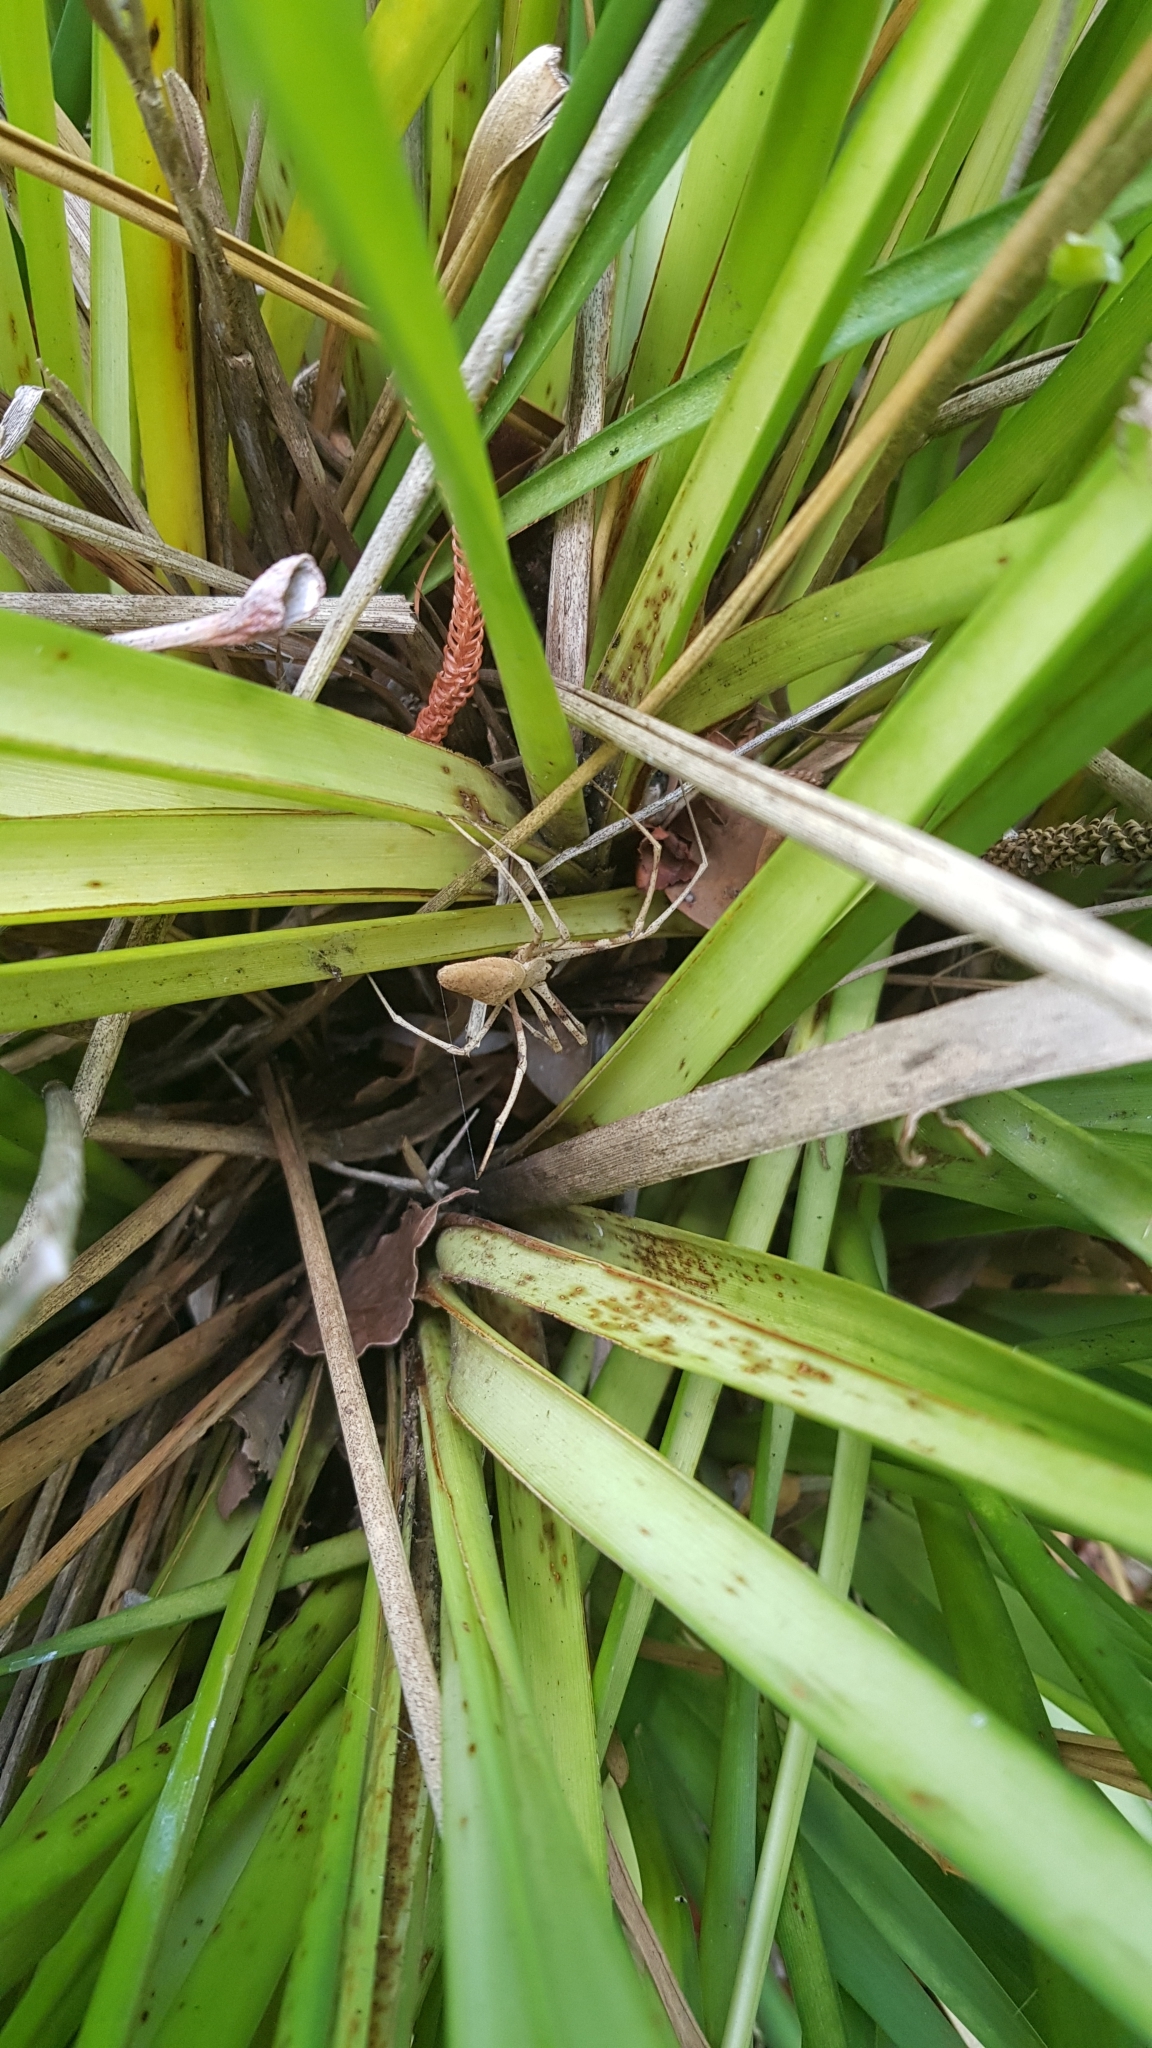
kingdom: Animalia
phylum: Arthropoda
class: Arachnida
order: Araneae
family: Deinopidae
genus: Deinopis
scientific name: Deinopis subrufa
